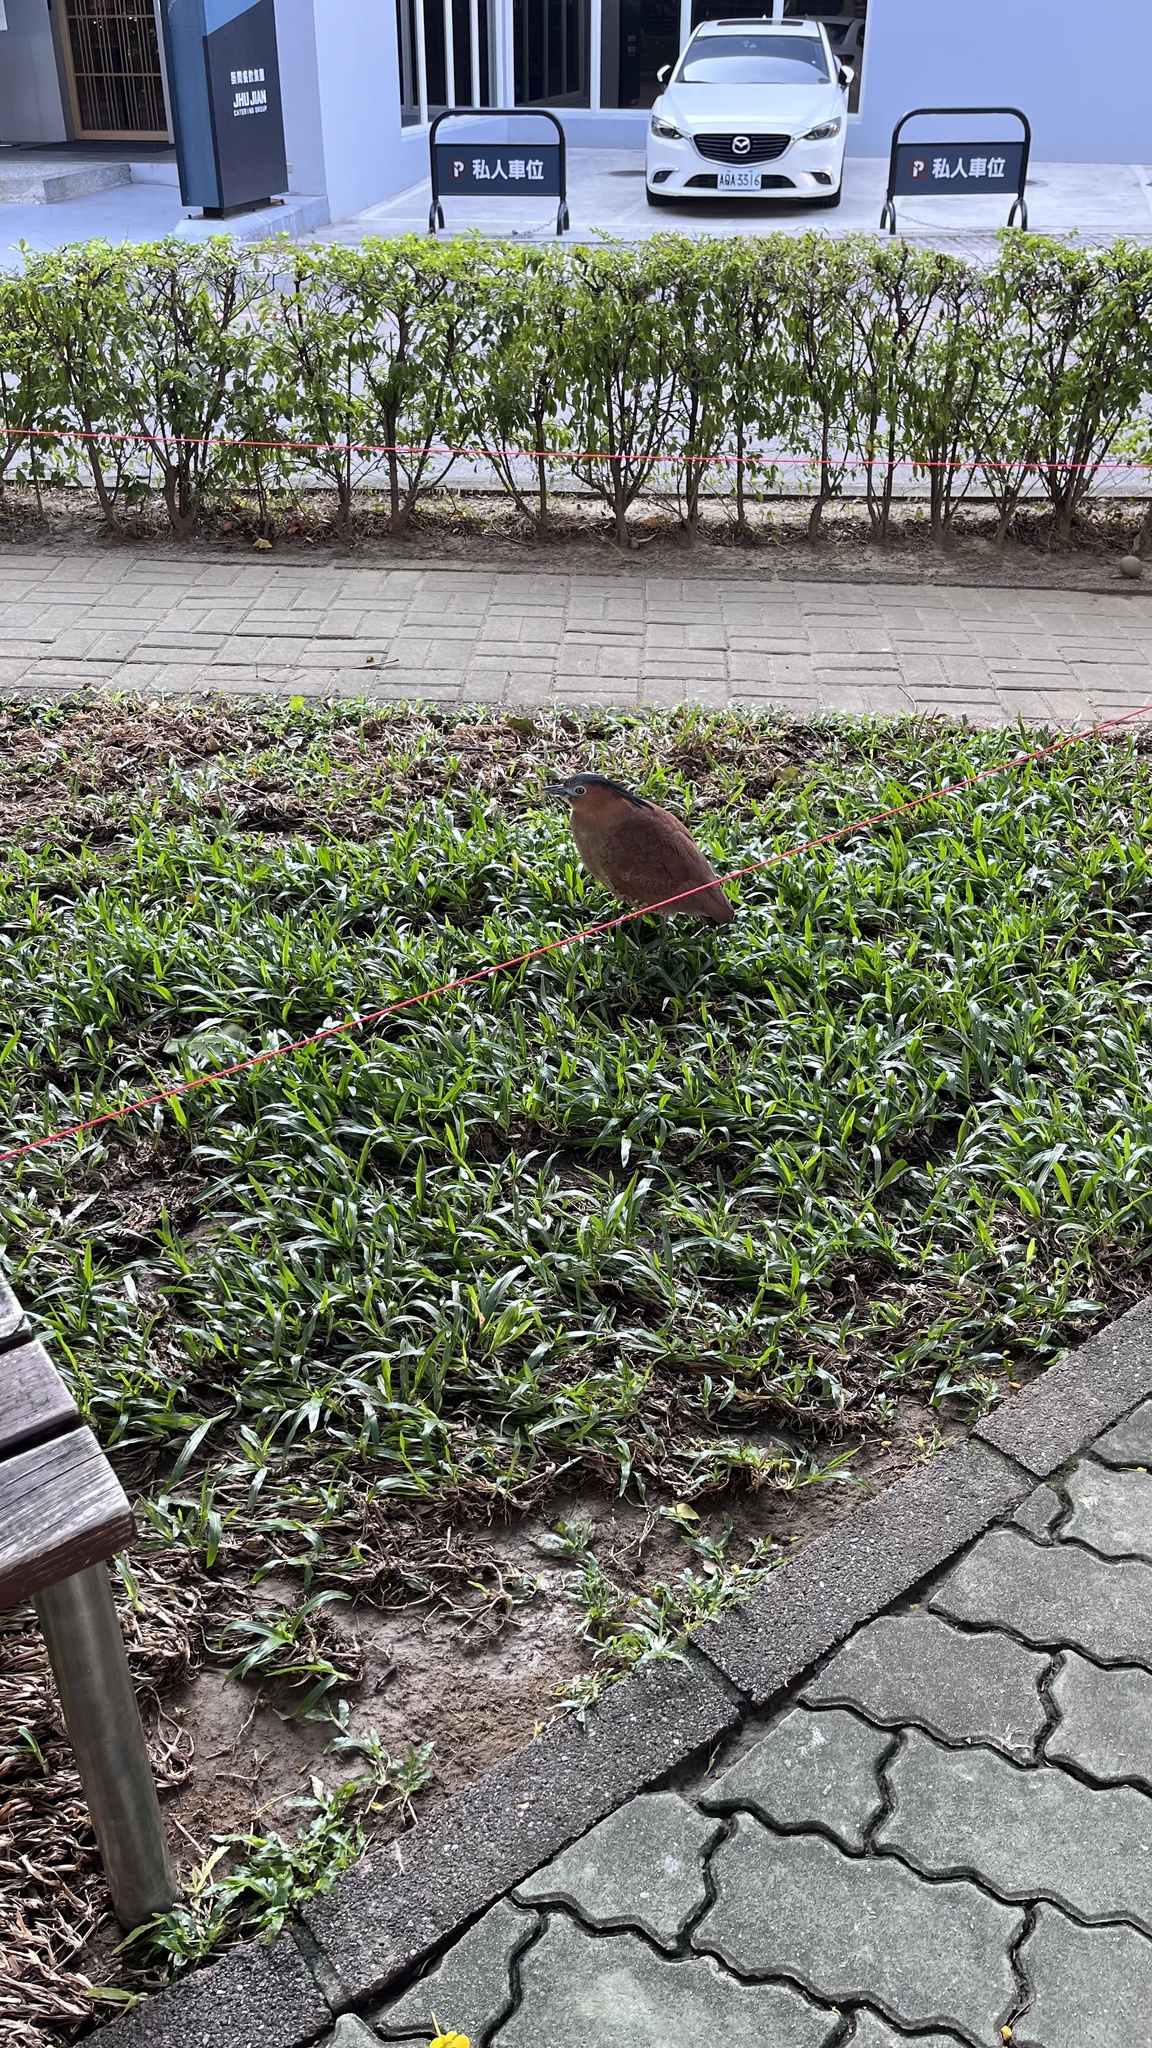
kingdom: Animalia
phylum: Chordata
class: Aves
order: Pelecaniformes
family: Ardeidae
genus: Gorsachius
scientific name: Gorsachius melanolophus
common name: Malayan night heron
